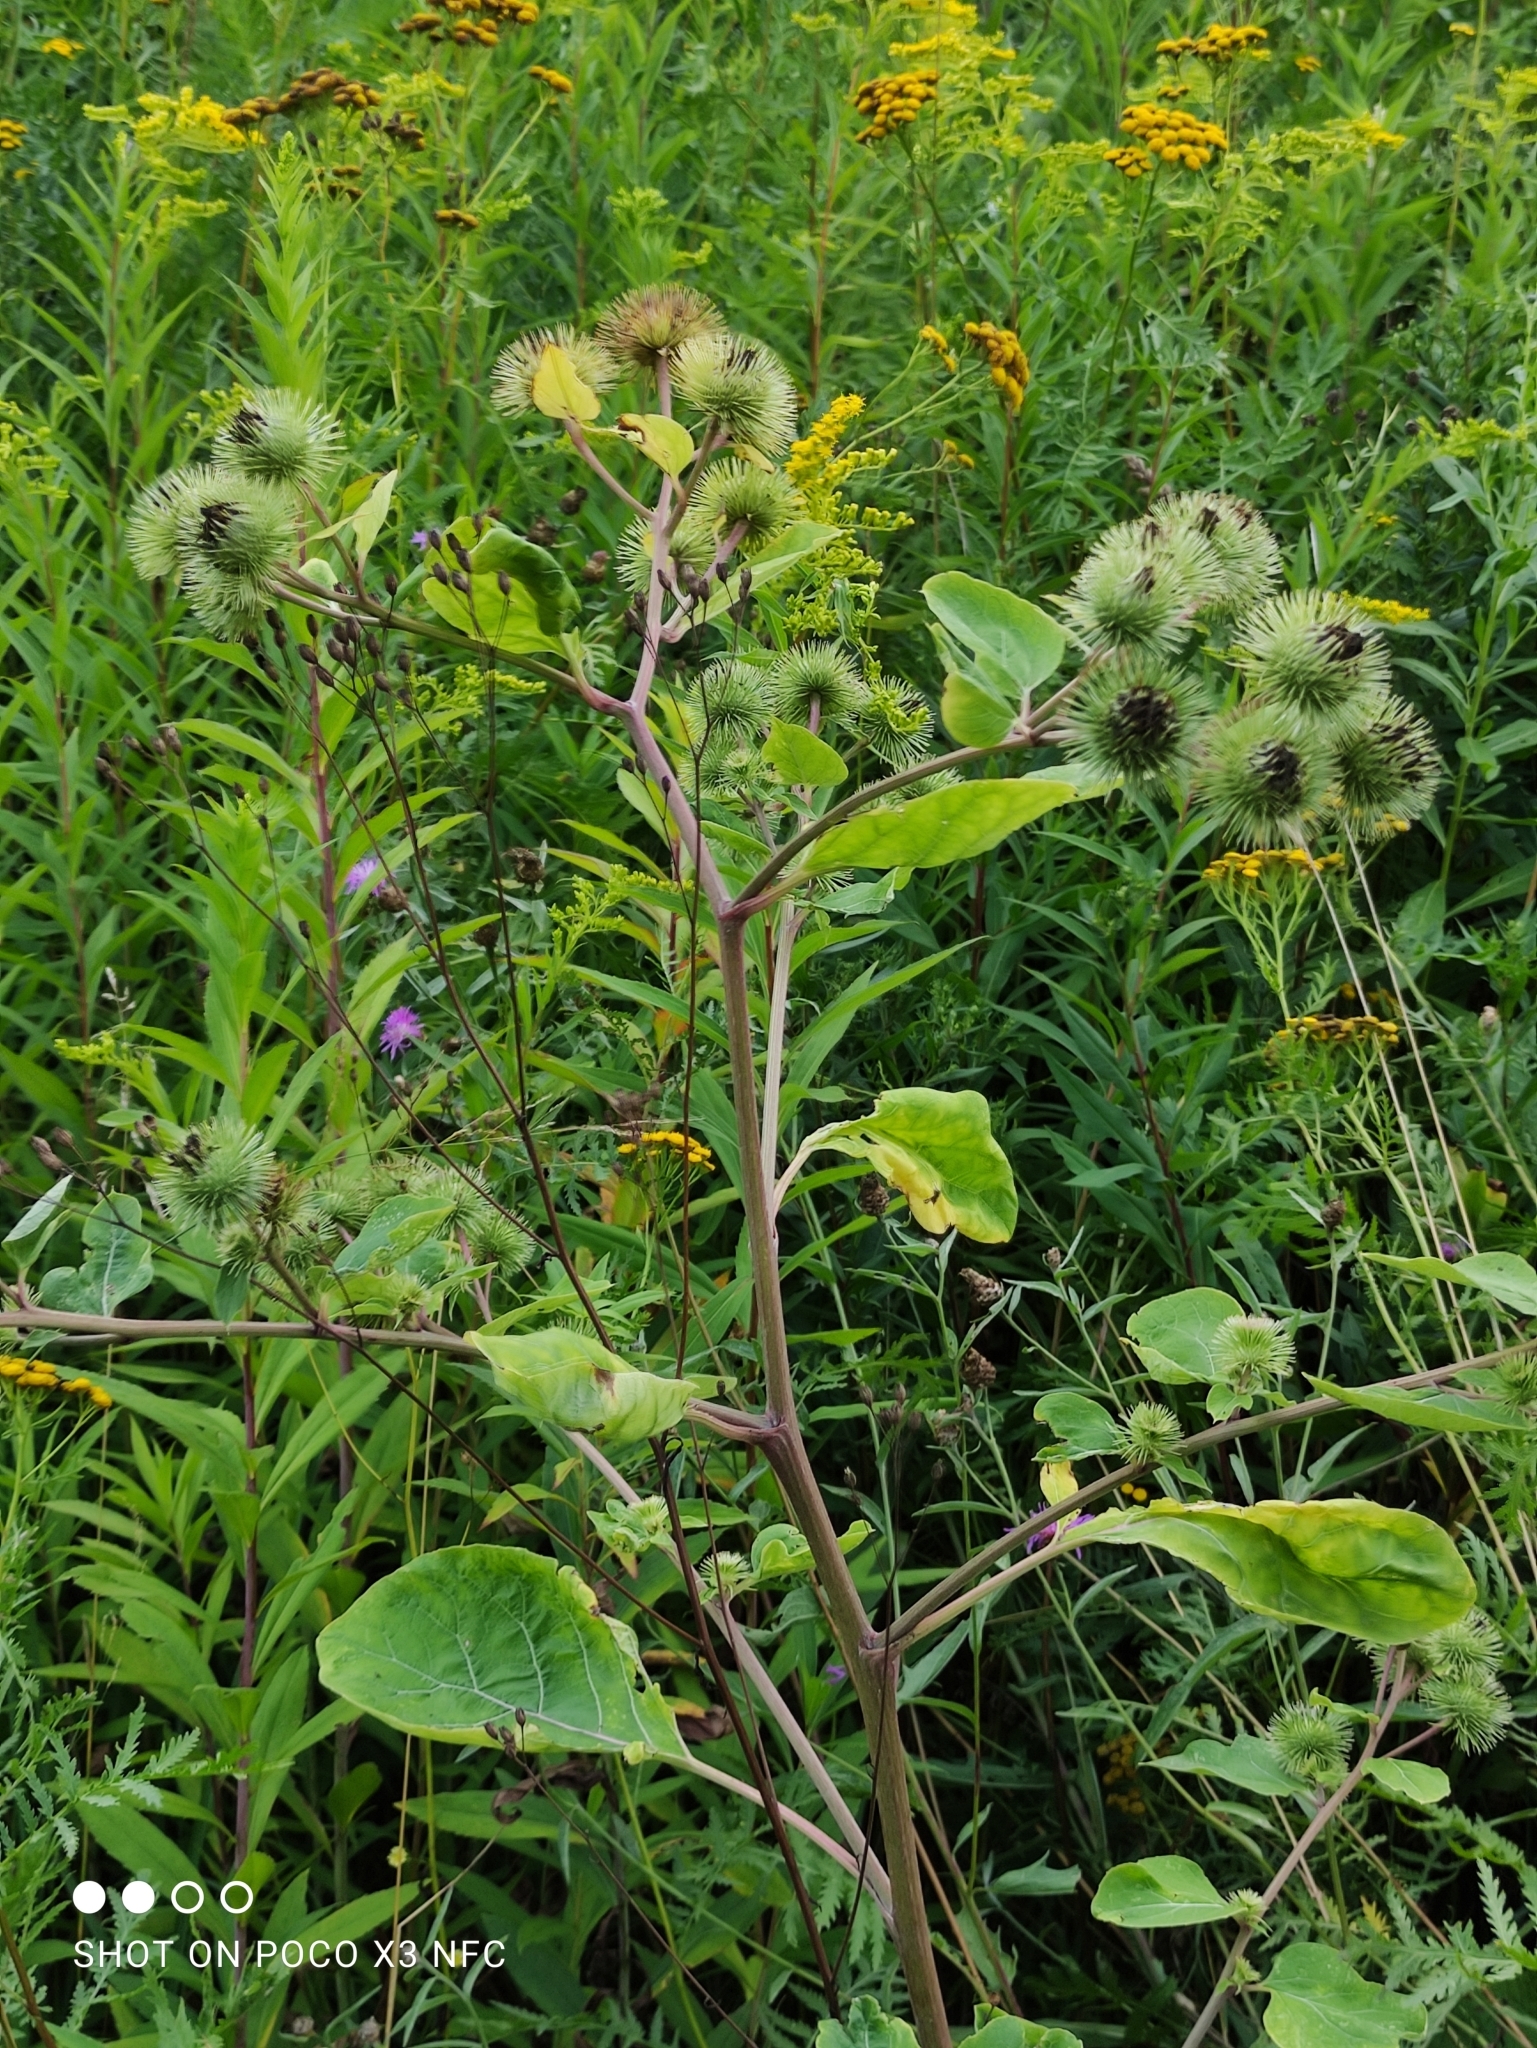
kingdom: Plantae
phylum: Tracheophyta
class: Magnoliopsida
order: Asterales
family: Asteraceae
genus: Arctium
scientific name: Arctium lappa
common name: Greater burdock
